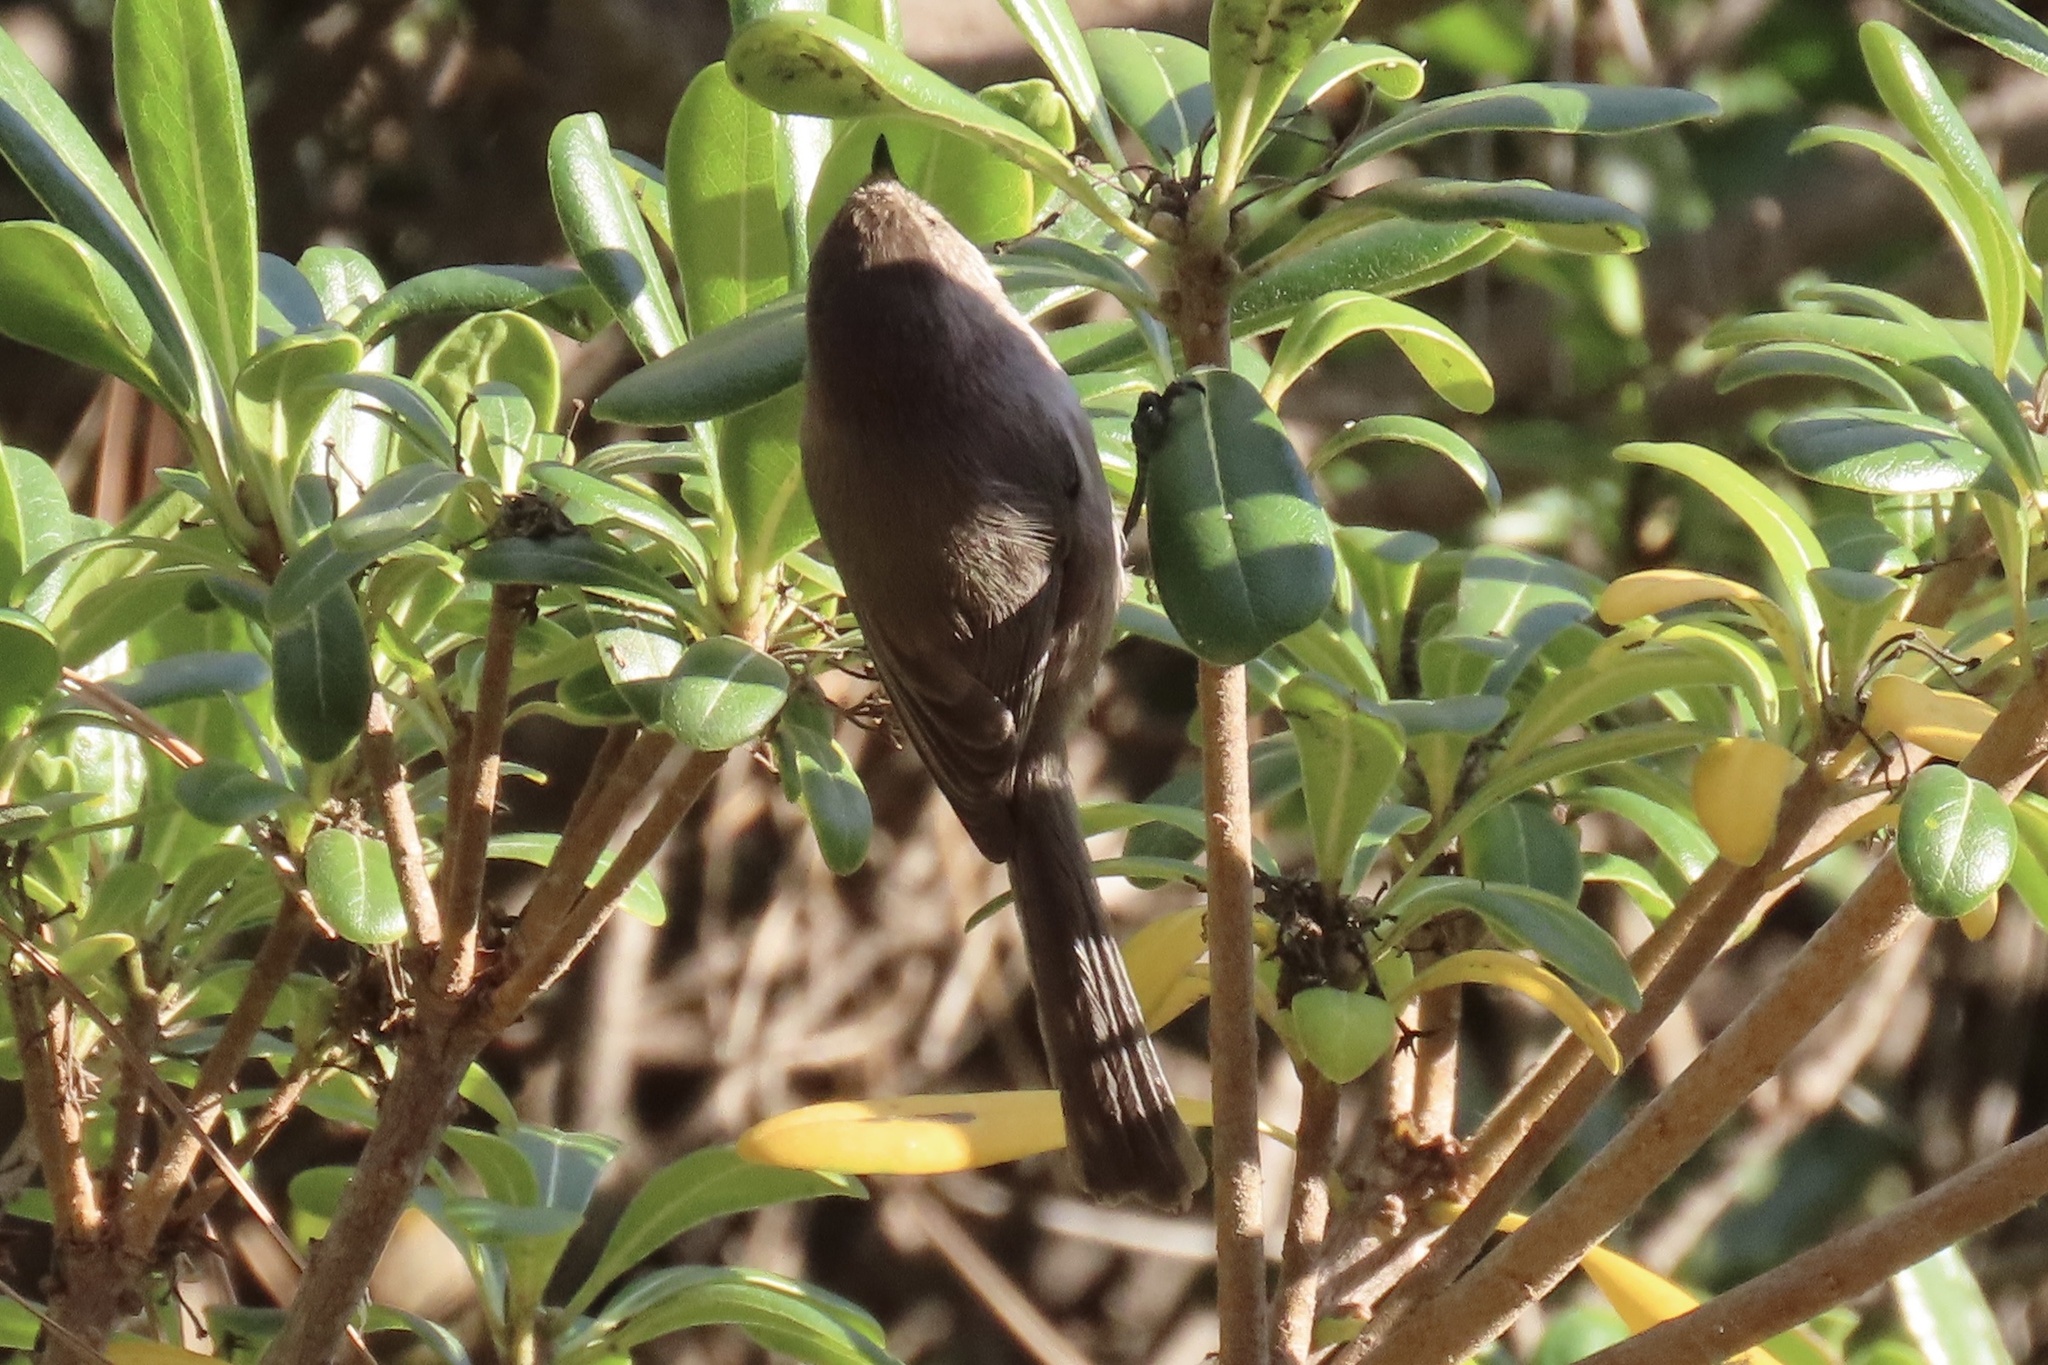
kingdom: Animalia
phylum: Chordata
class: Aves
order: Passeriformes
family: Aegithalidae
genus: Psaltriparus
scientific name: Psaltriparus minimus
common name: American bushtit
